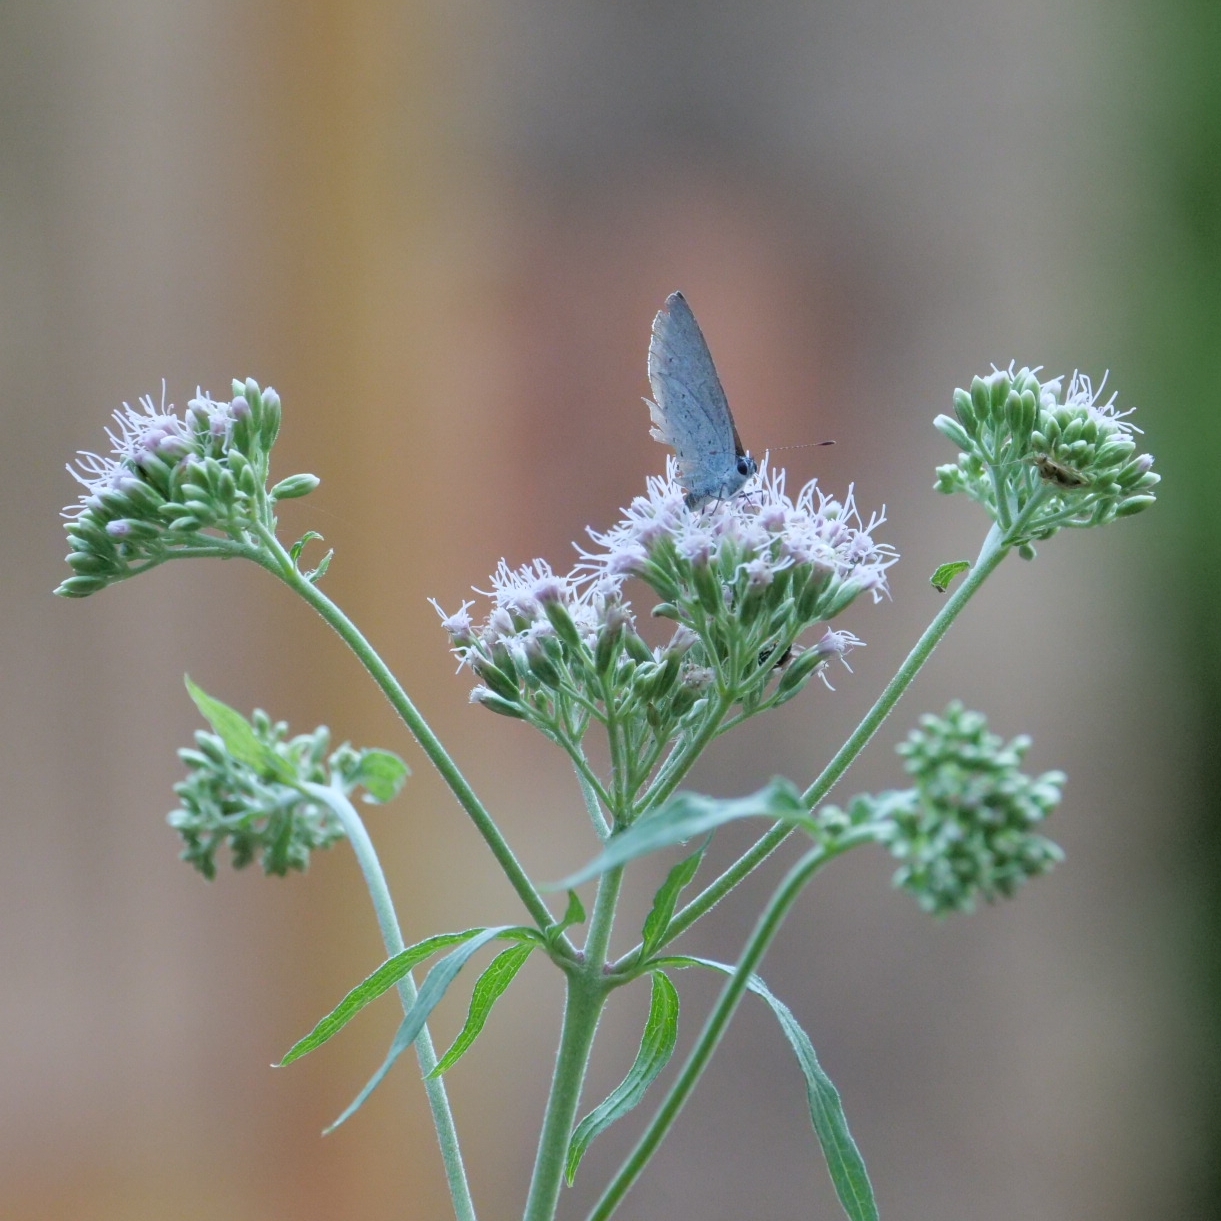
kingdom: Plantae
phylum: Tracheophyta
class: Magnoliopsida
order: Asterales
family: Asteraceae
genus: Eupatorium
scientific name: Eupatorium cannabinum
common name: Hemp-agrimony
